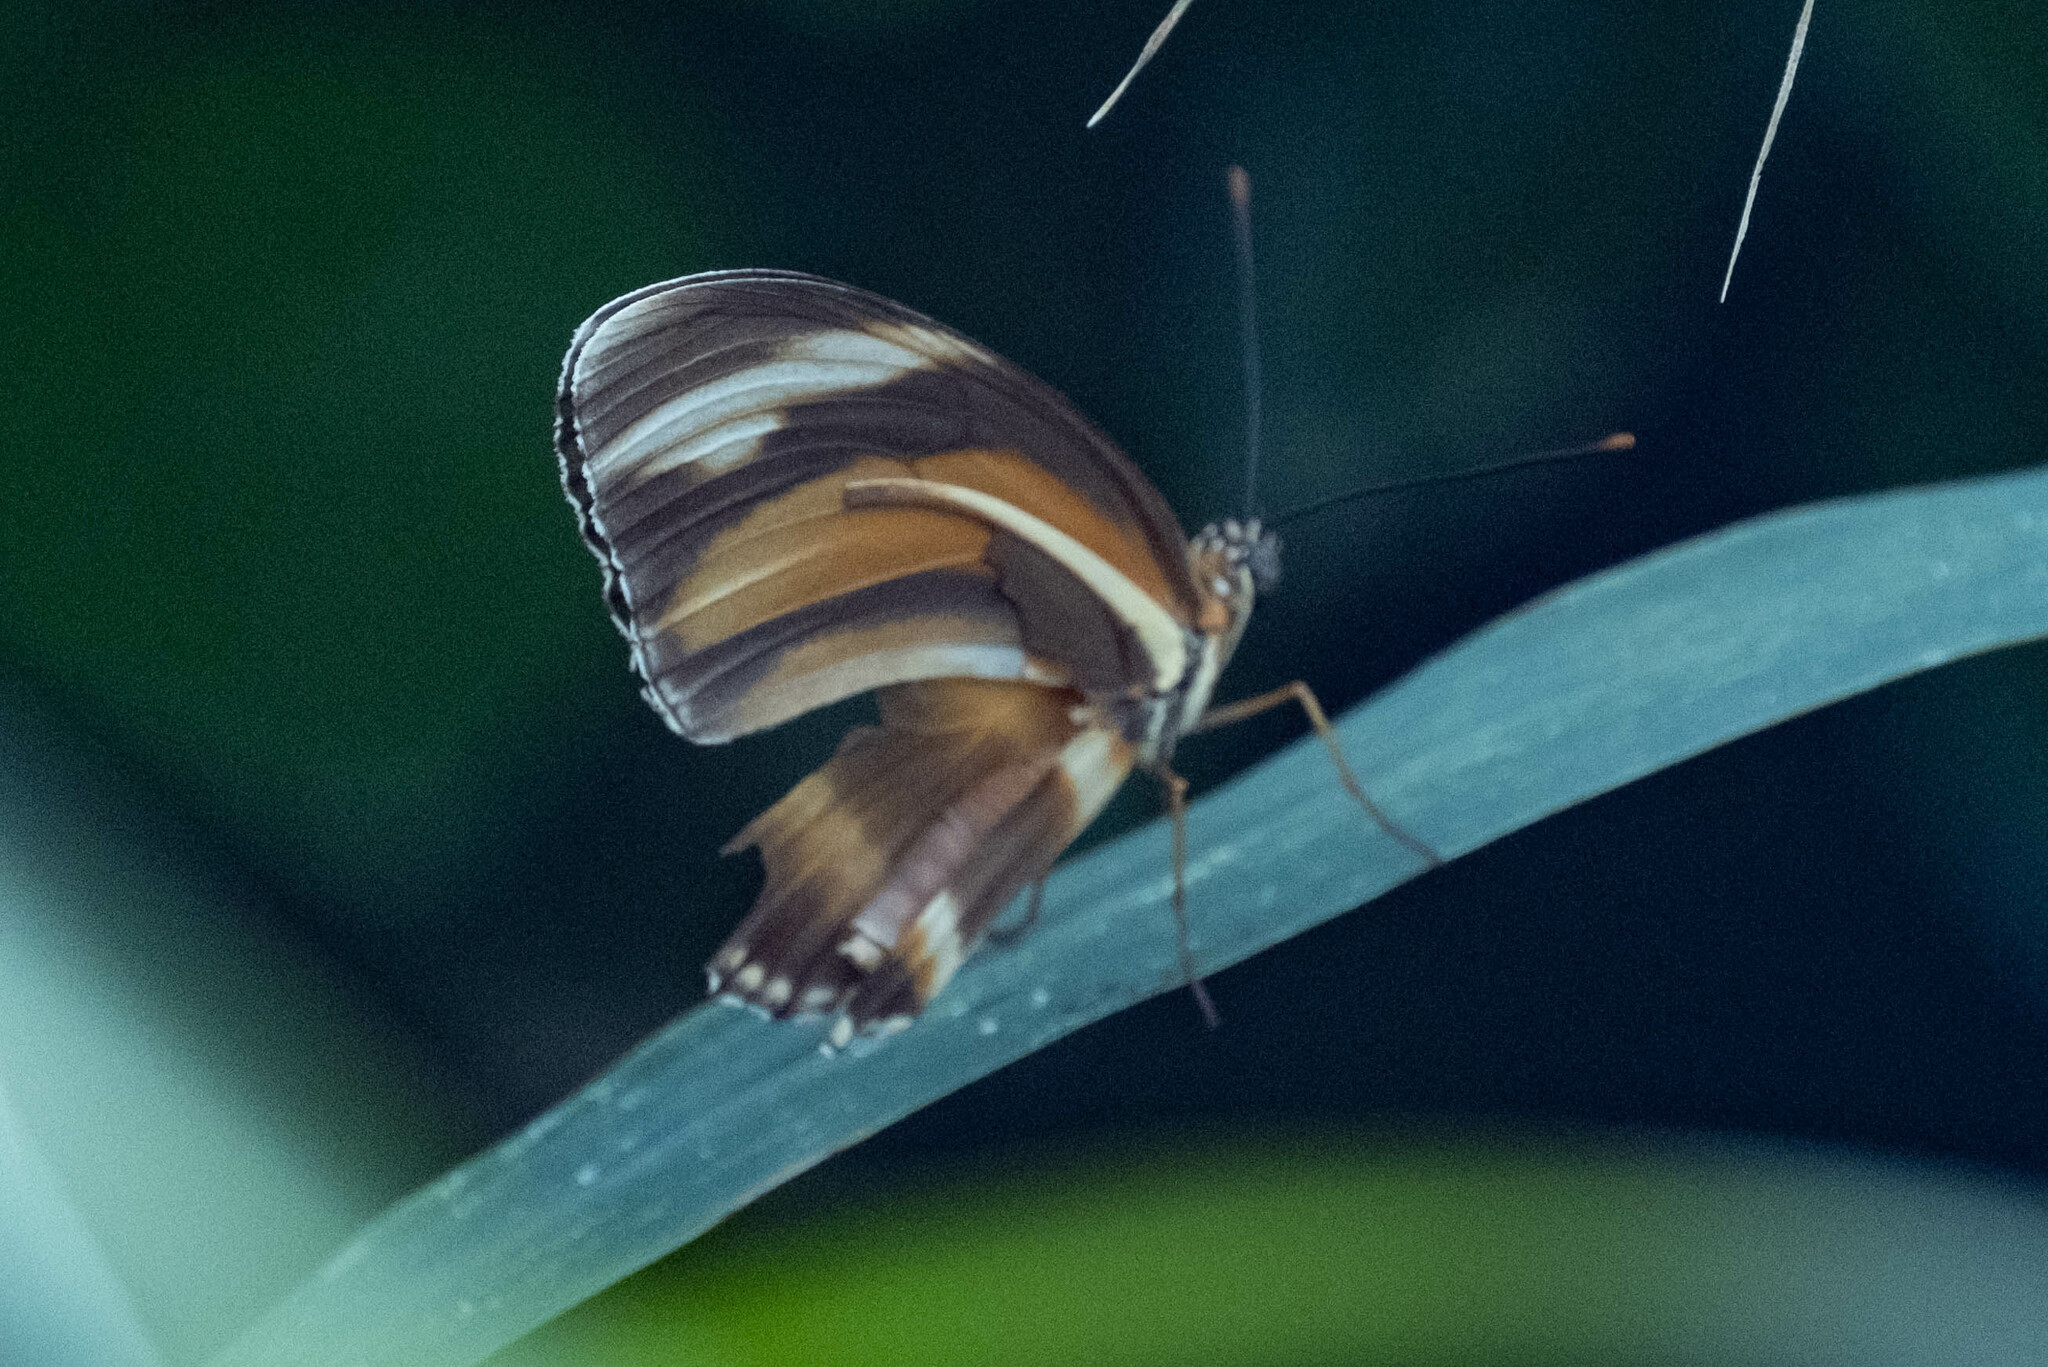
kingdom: Animalia
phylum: Arthropoda
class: Insecta
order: Lepidoptera
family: Nymphalidae
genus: Dryadula
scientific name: Dryadula phaetusa
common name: Banded orange heliconian
